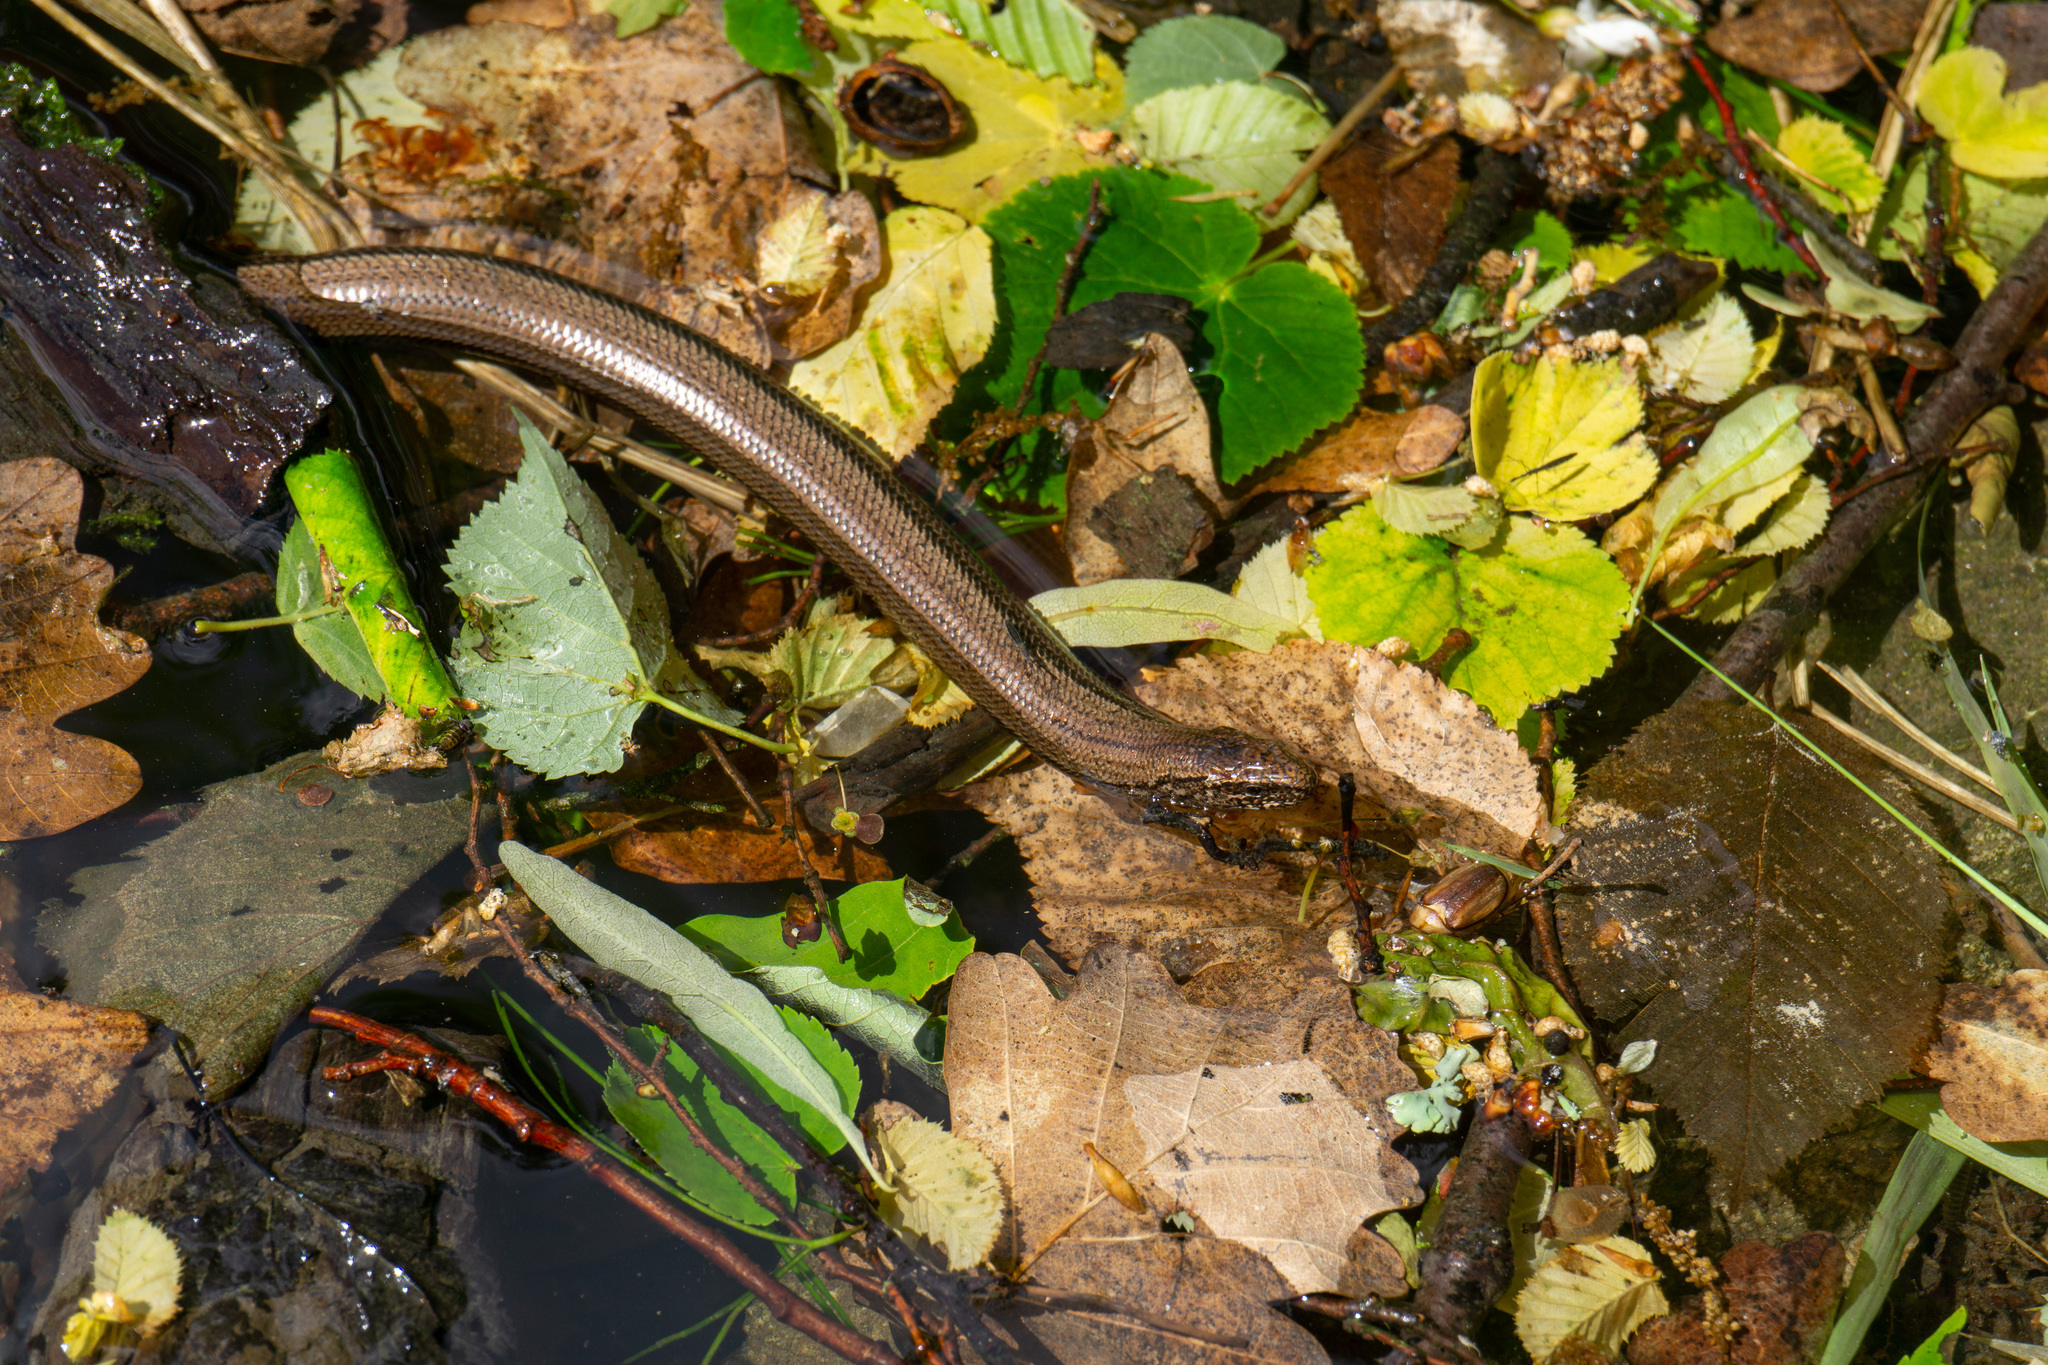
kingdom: Animalia
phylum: Chordata
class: Squamata
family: Anguidae
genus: Anguis
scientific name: Anguis fragilis
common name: Slow worm
